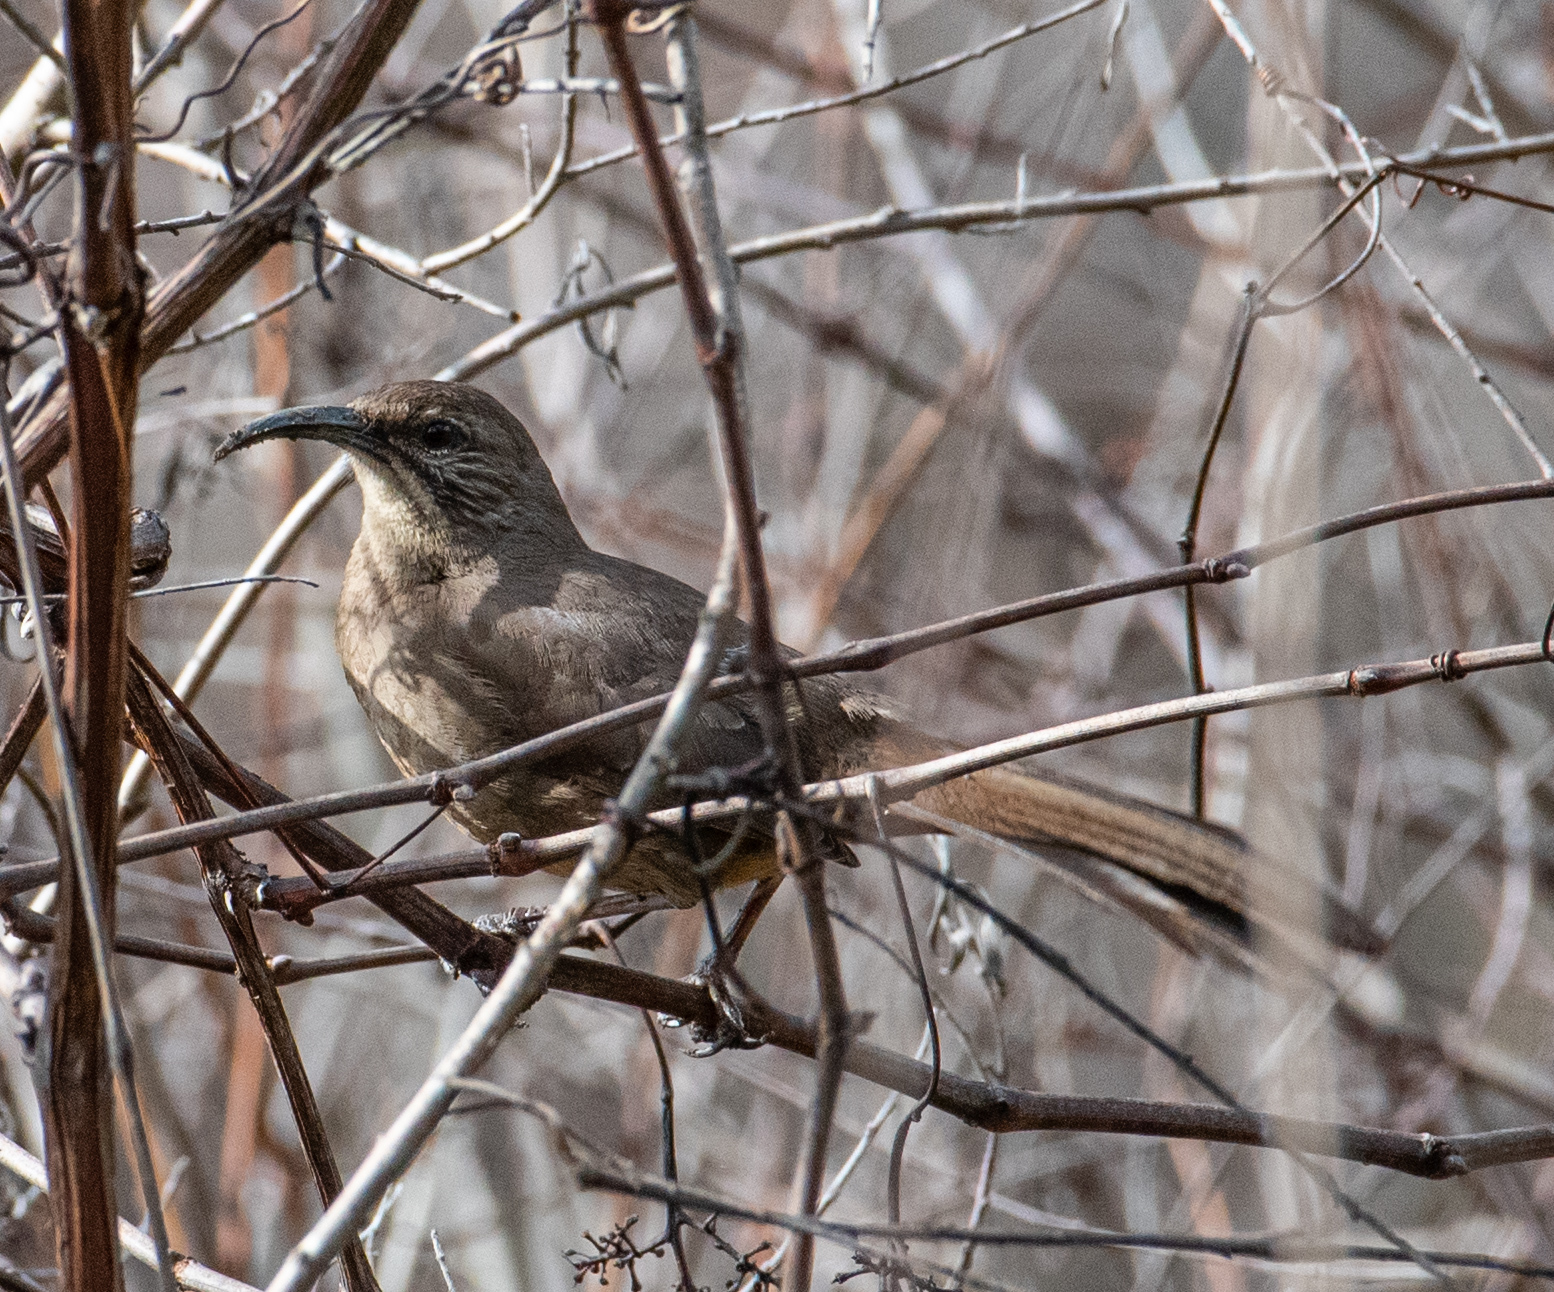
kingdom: Animalia
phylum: Chordata
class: Aves
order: Passeriformes
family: Mimidae
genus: Toxostoma
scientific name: Toxostoma redivivum
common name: California thrasher
